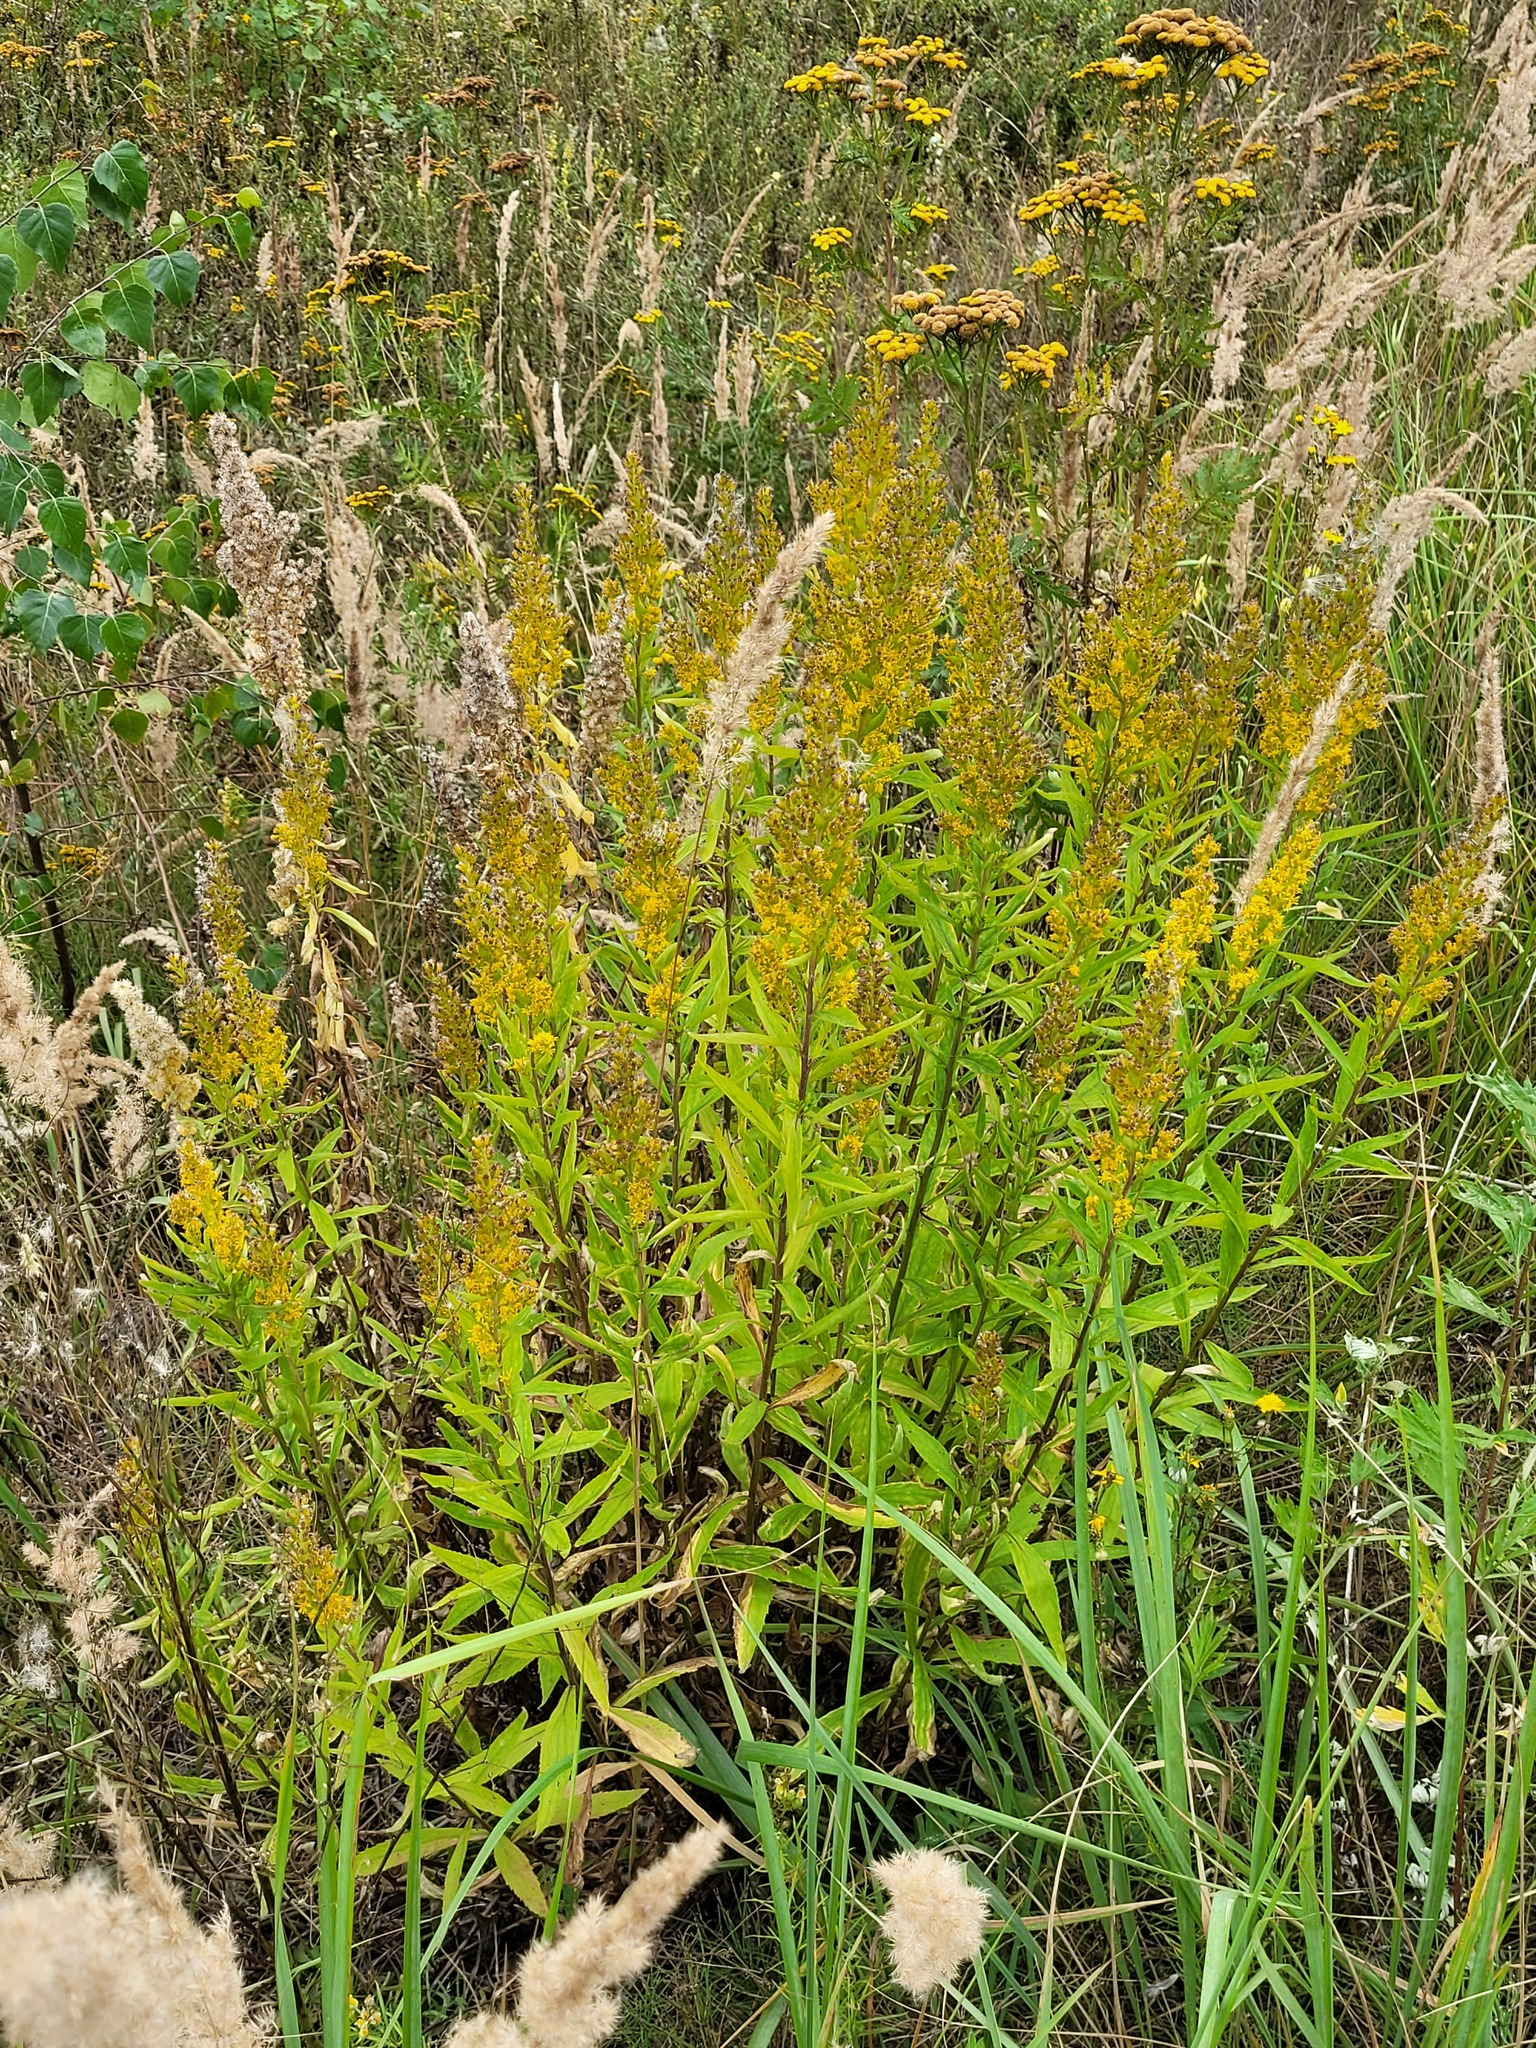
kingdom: Plantae
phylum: Tracheophyta
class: Magnoliopsida
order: Asterales
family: Asteraceae
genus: Solidago
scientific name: Solidago niederederi
